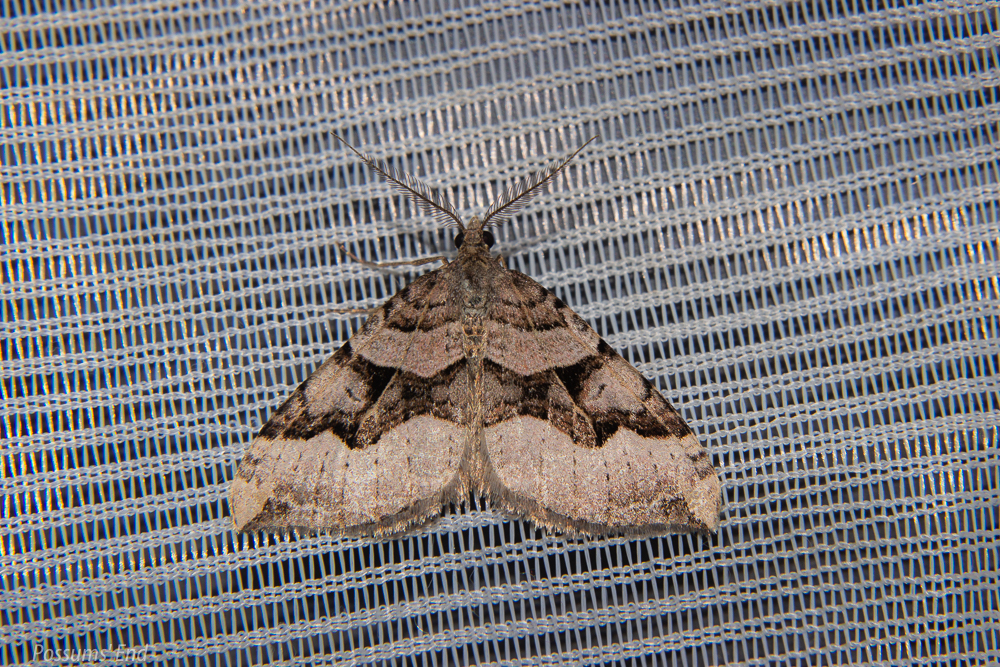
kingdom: Animalia
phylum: Arthropoda
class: Insecta
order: Lepidoptera
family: Geometridae
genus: Xanthorhoe
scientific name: Xanthorhoe semifissata
